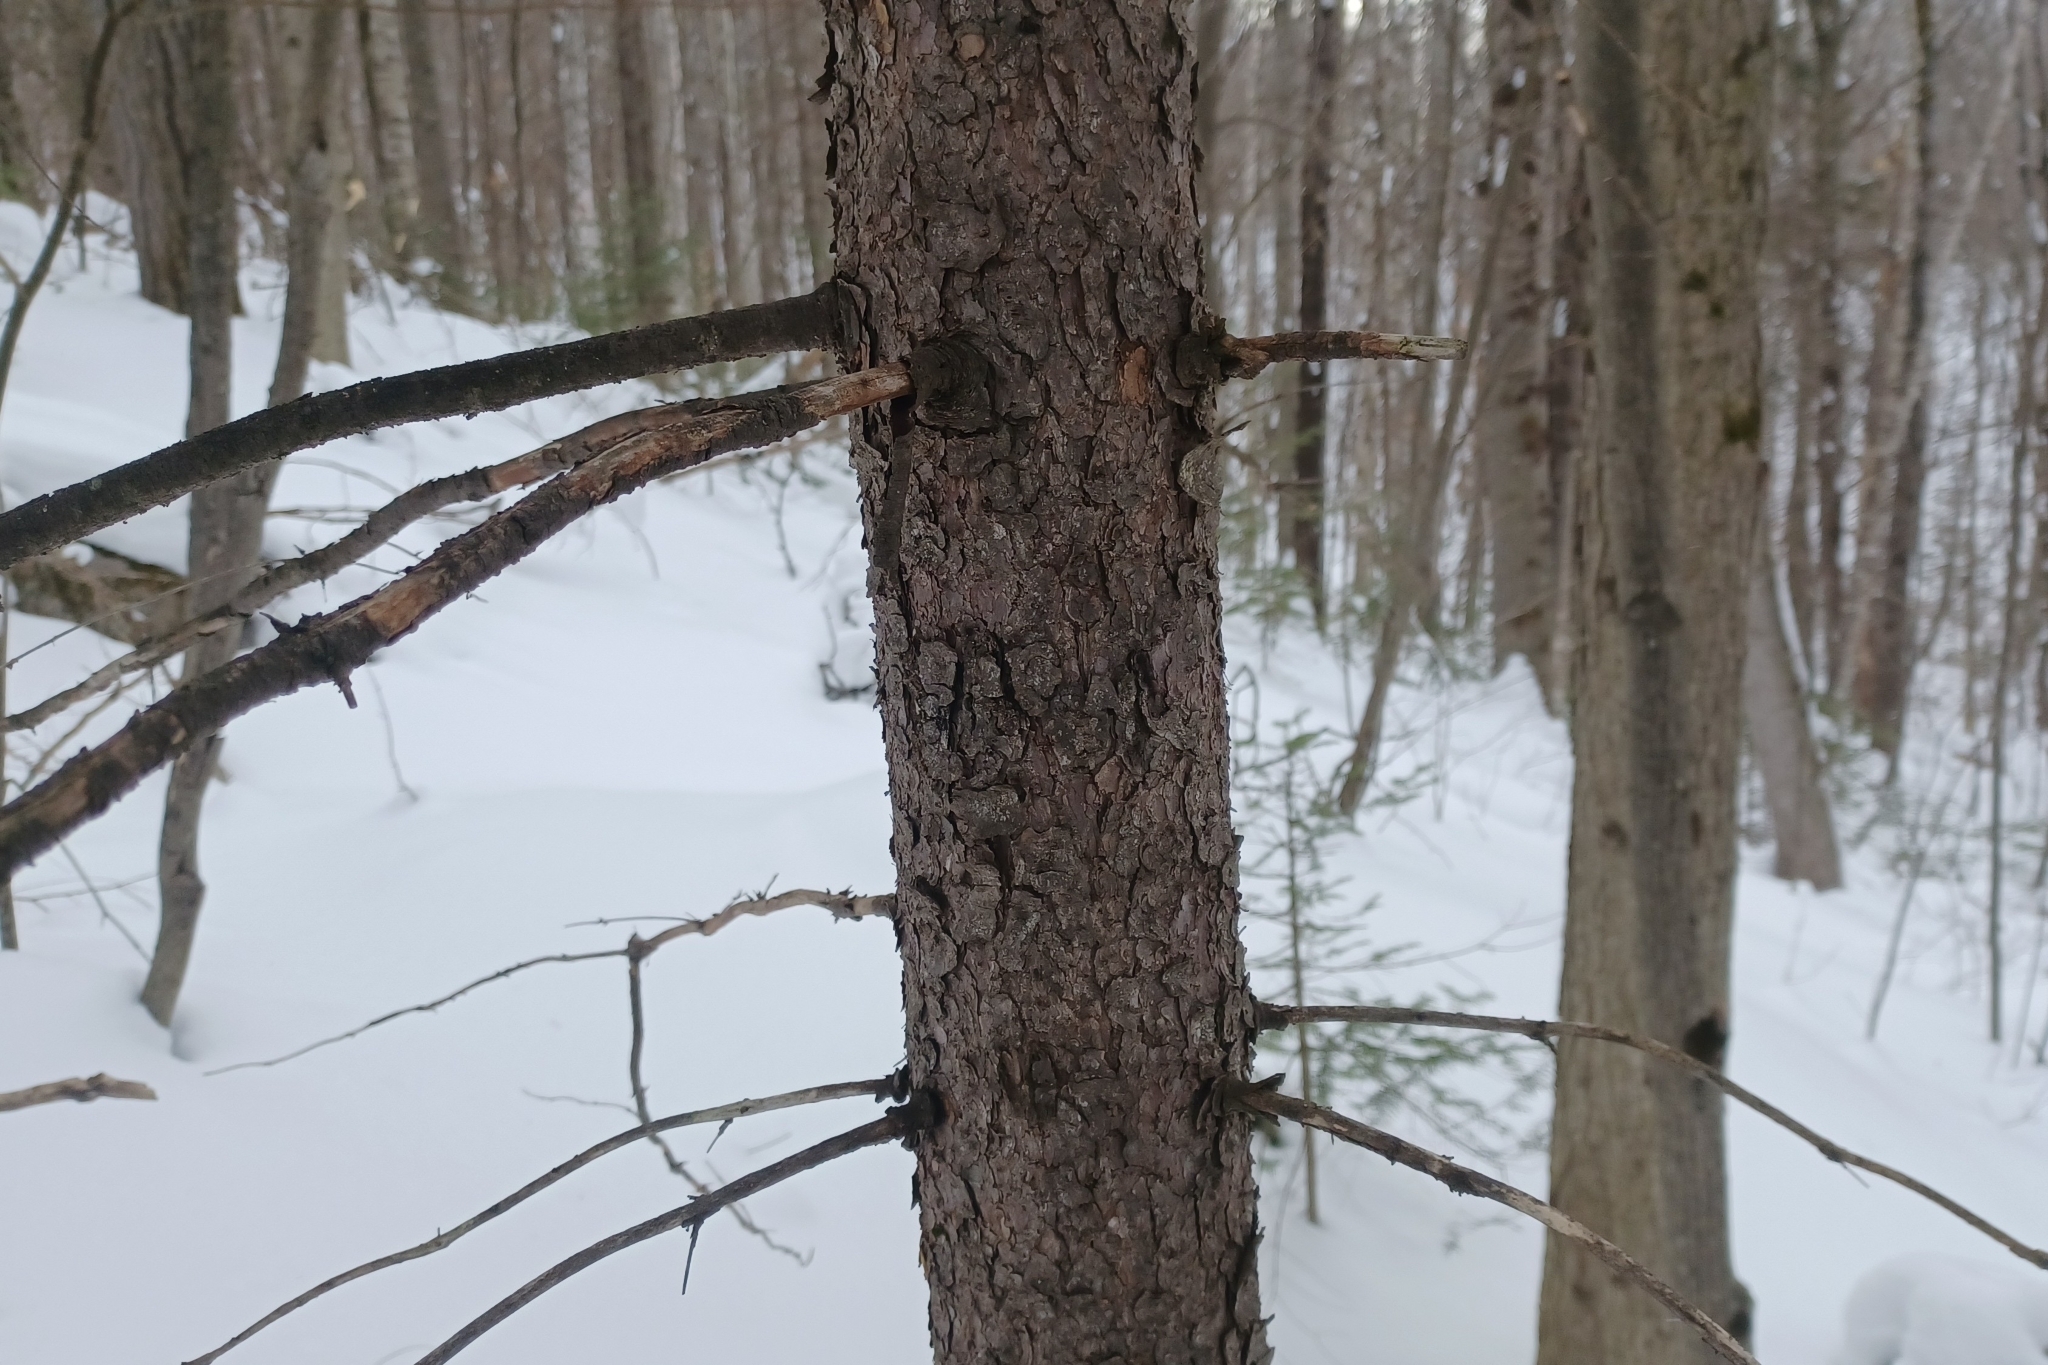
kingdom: Plantae
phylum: Tracheophyta
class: Pinopsida
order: Pinales
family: Pinaceae
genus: Picea
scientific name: Picea rubens
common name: Red spruce
